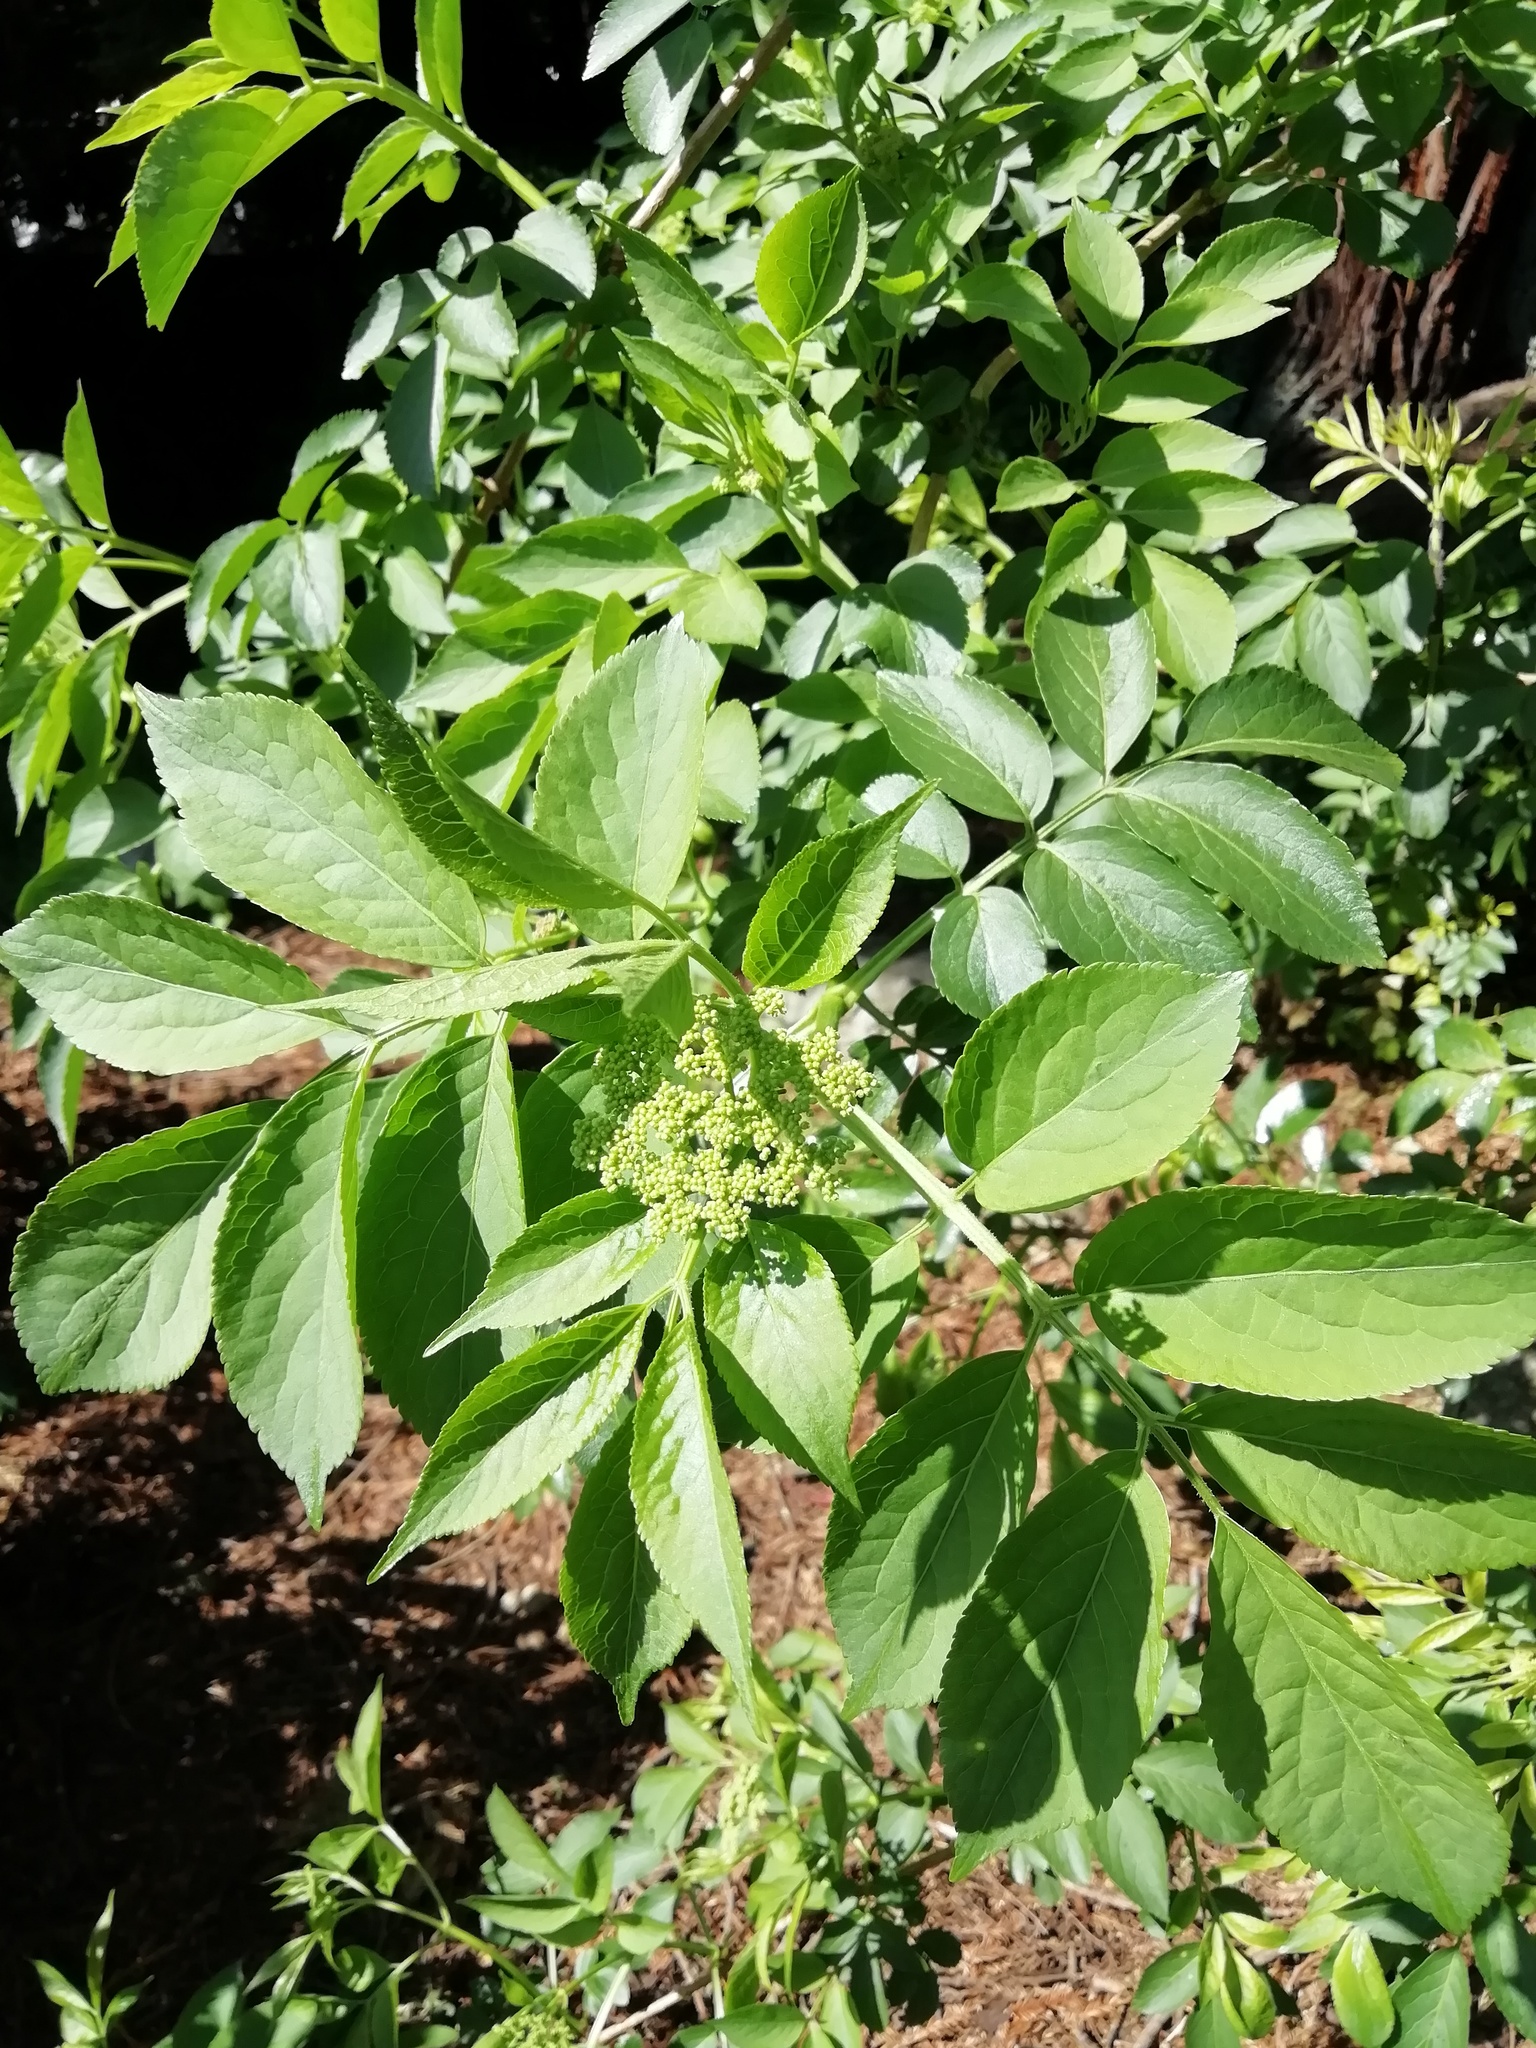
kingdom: Plantae
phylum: Tracheophyta
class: Magnoliopsida
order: Dipsacales
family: Viburnaceae
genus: Sambucus
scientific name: Sambucus nigra
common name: Elder
